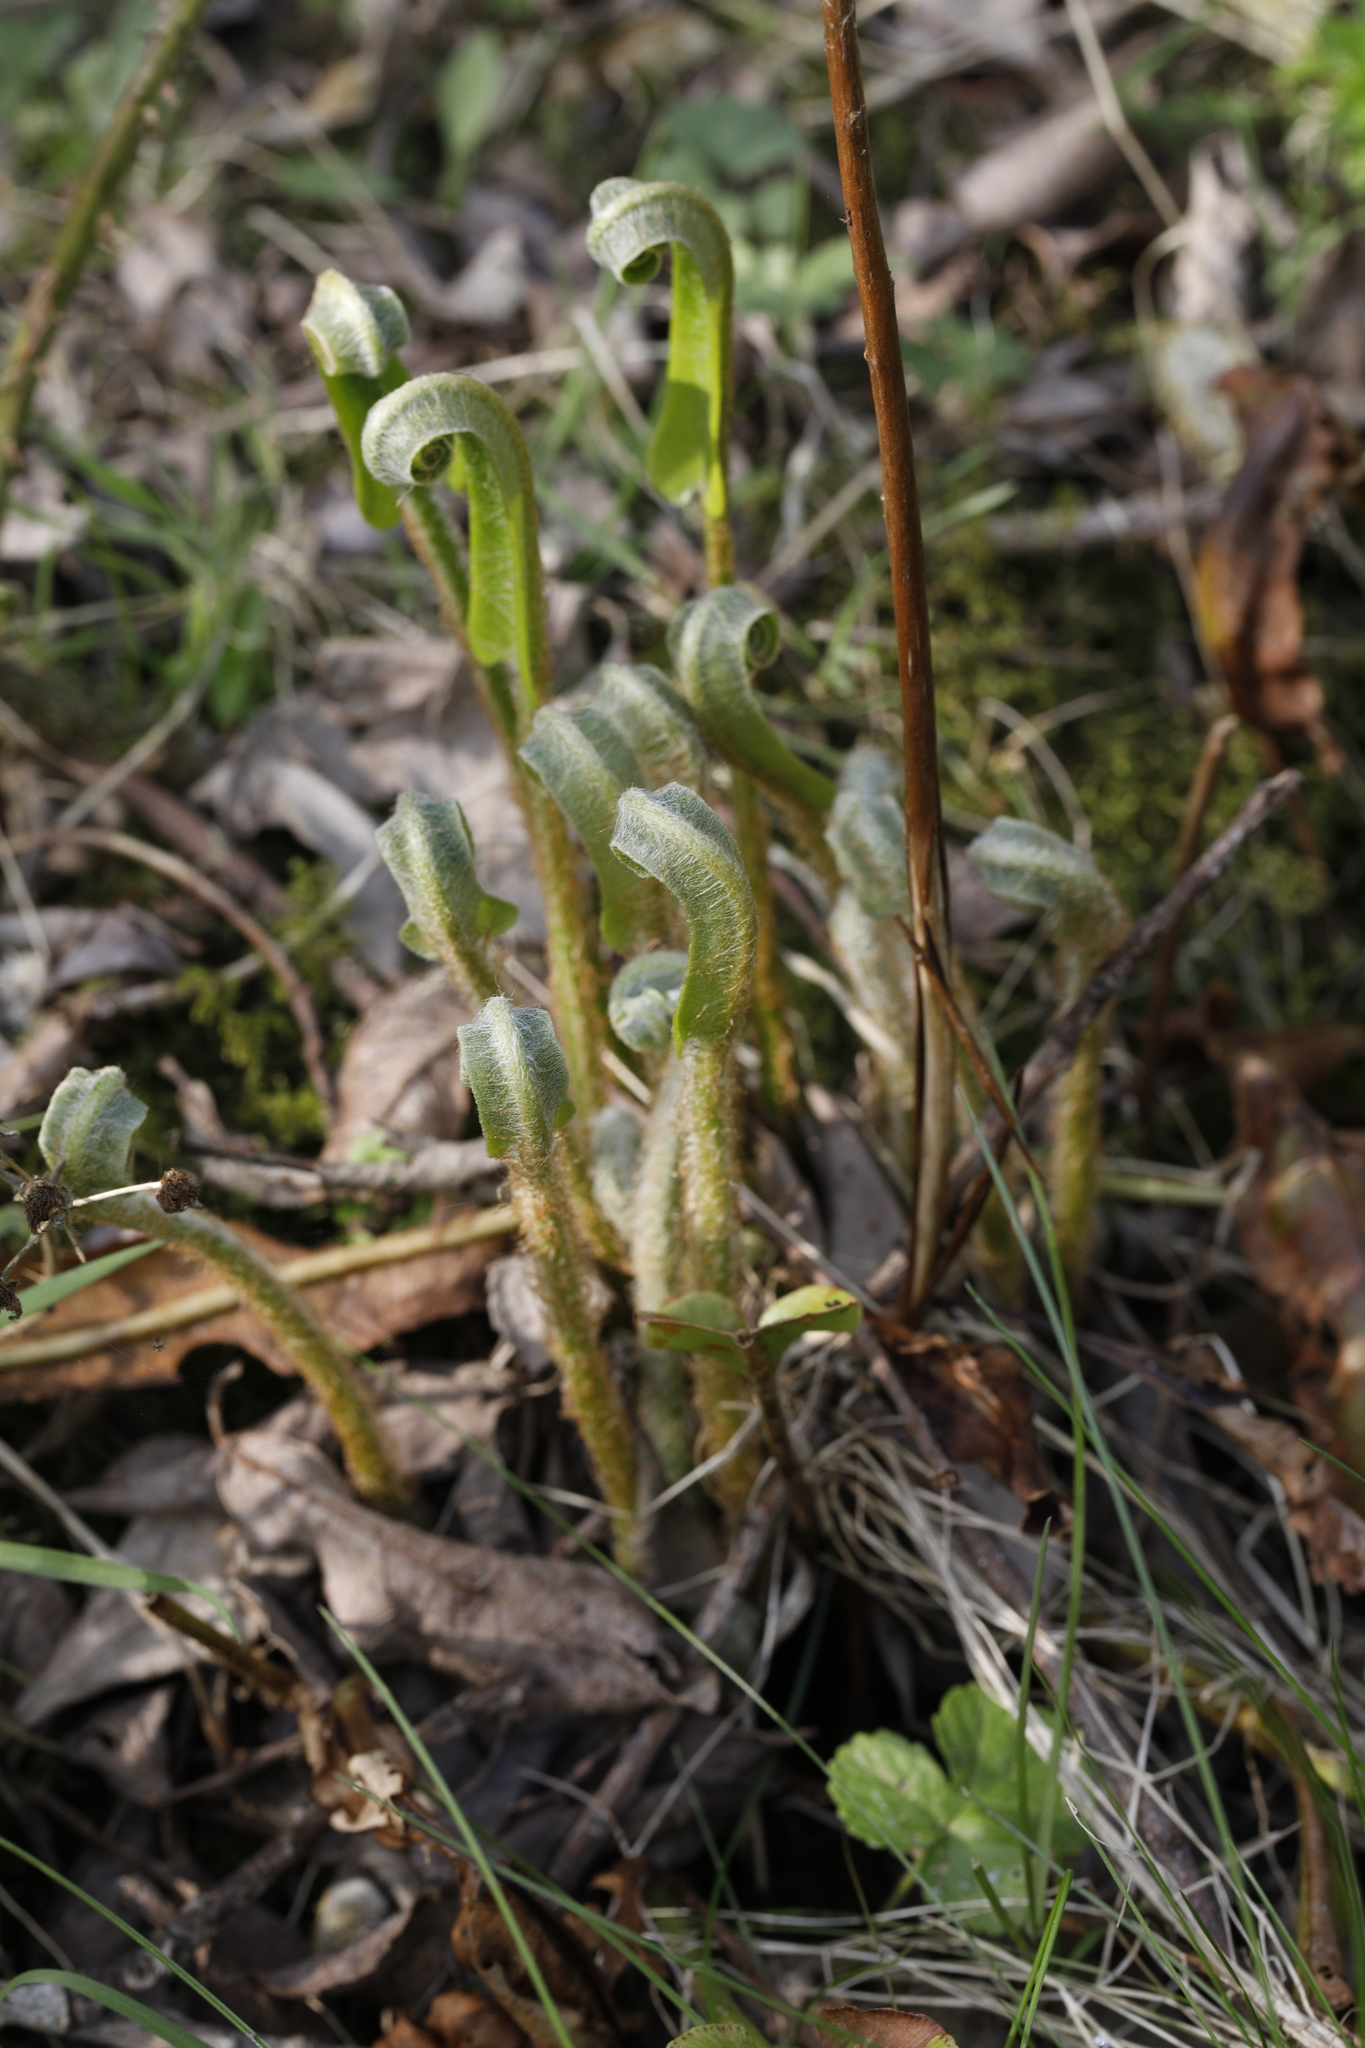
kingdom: Plantae
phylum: Tracheophyta
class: Polypodiopsida
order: Polypodiales
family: Aspleniaceae
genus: Asplenium
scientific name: Asplenium scolopendrium
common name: Hart's-tongue fern
